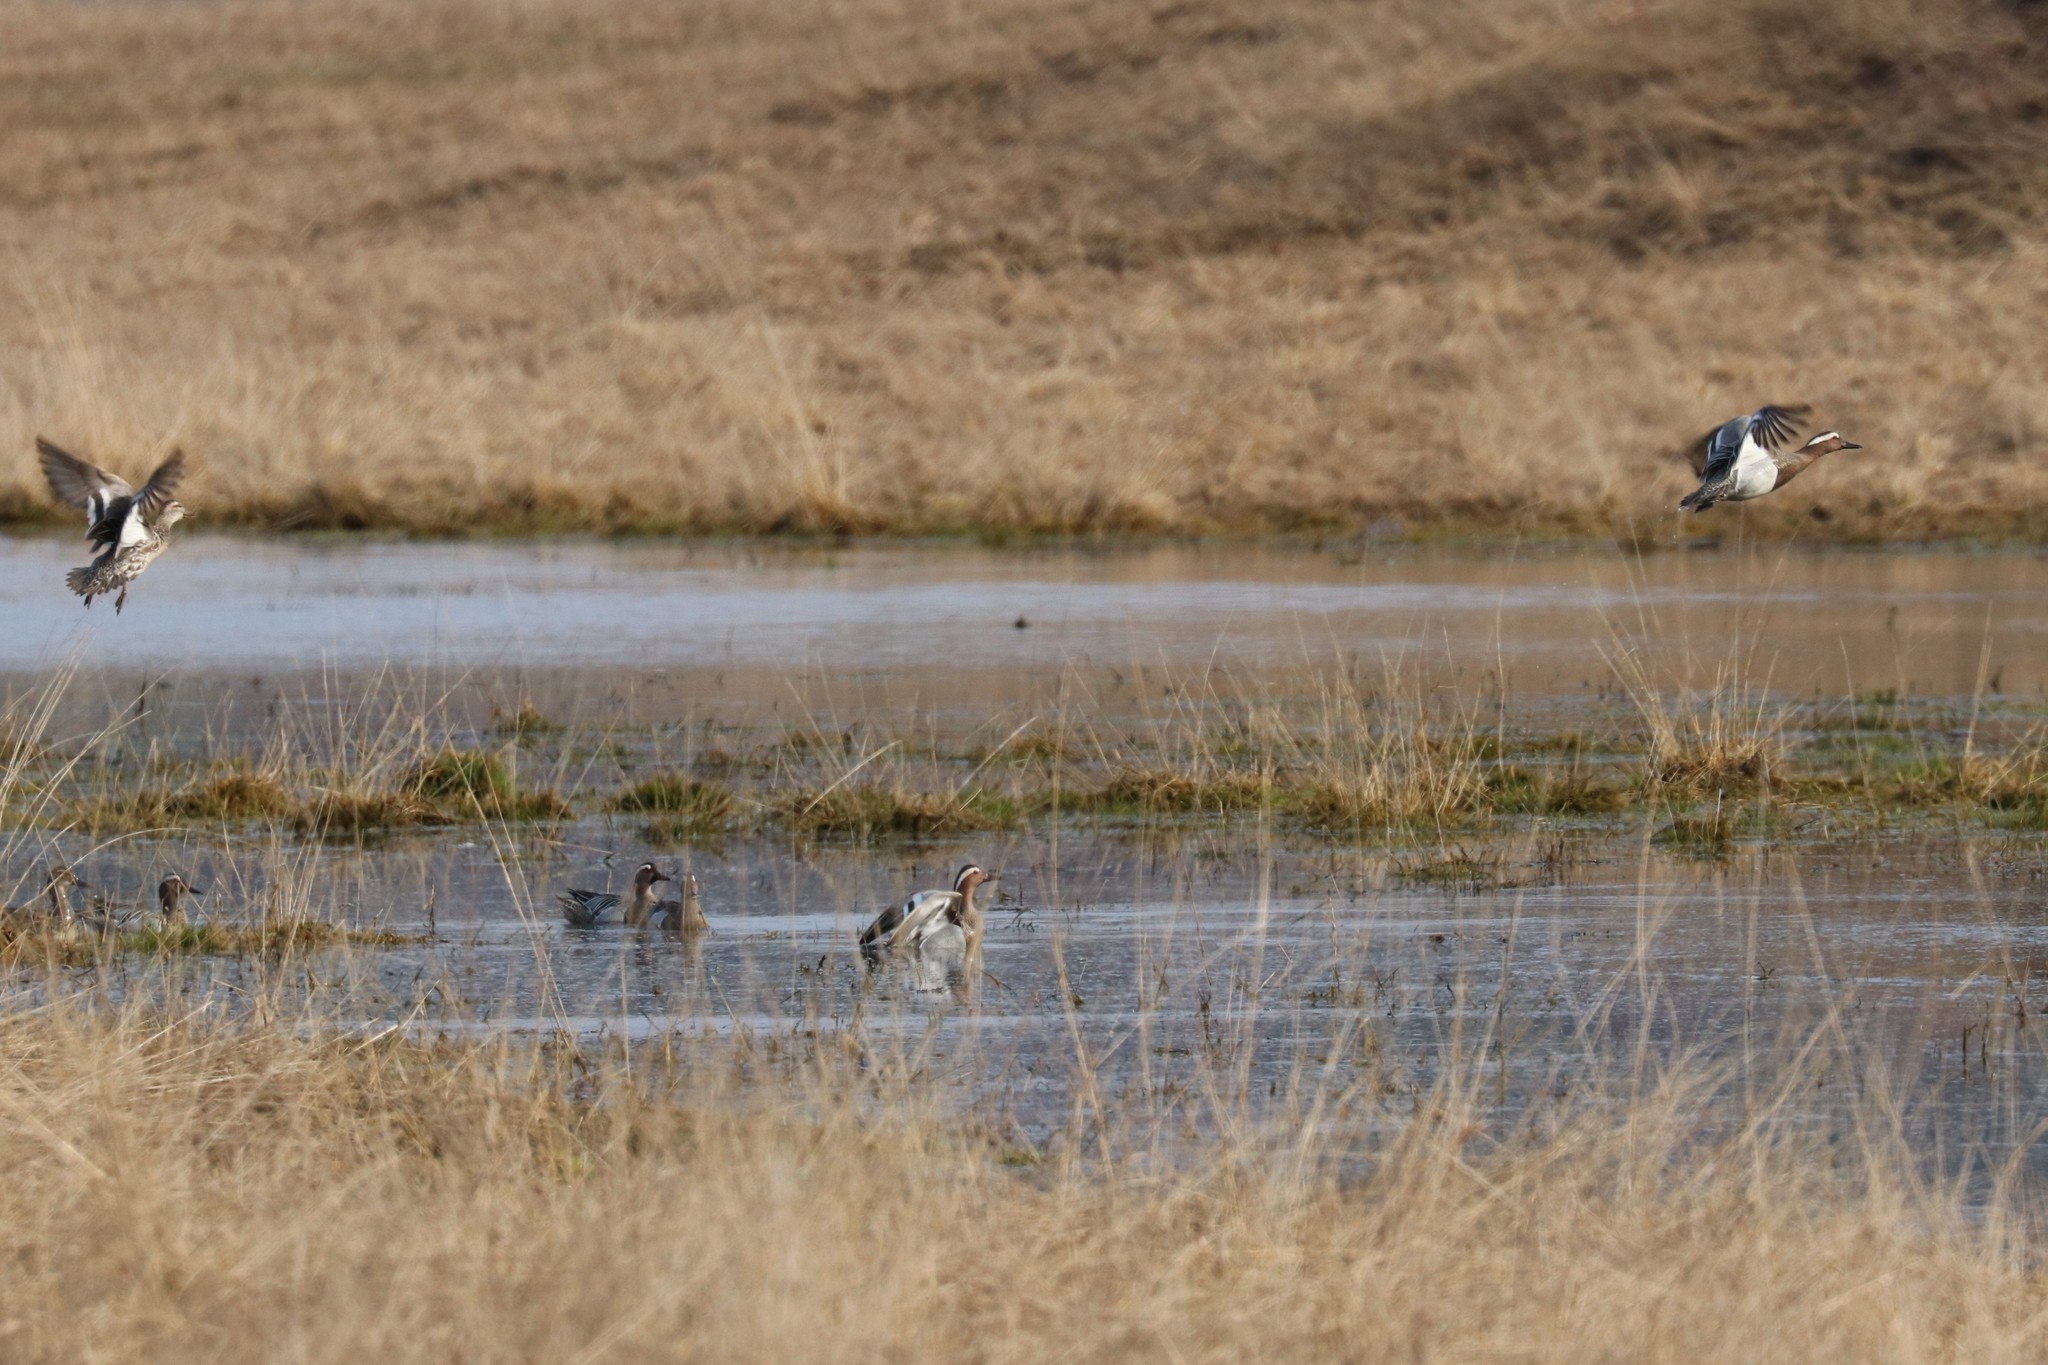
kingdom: Animalia
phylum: Chordata
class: Aves
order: Anseriformes
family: Anatidae
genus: Spatula
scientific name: Spatula querquedula
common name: Garganey
